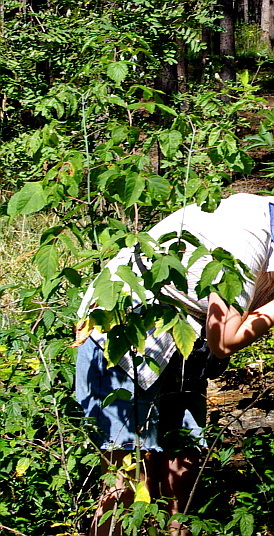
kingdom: Plantae
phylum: Tracheophyta
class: Magnoliopsida
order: Sapindales
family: Sapindaceae
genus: Acer
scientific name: Acer negundo
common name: Ashleaf maple
